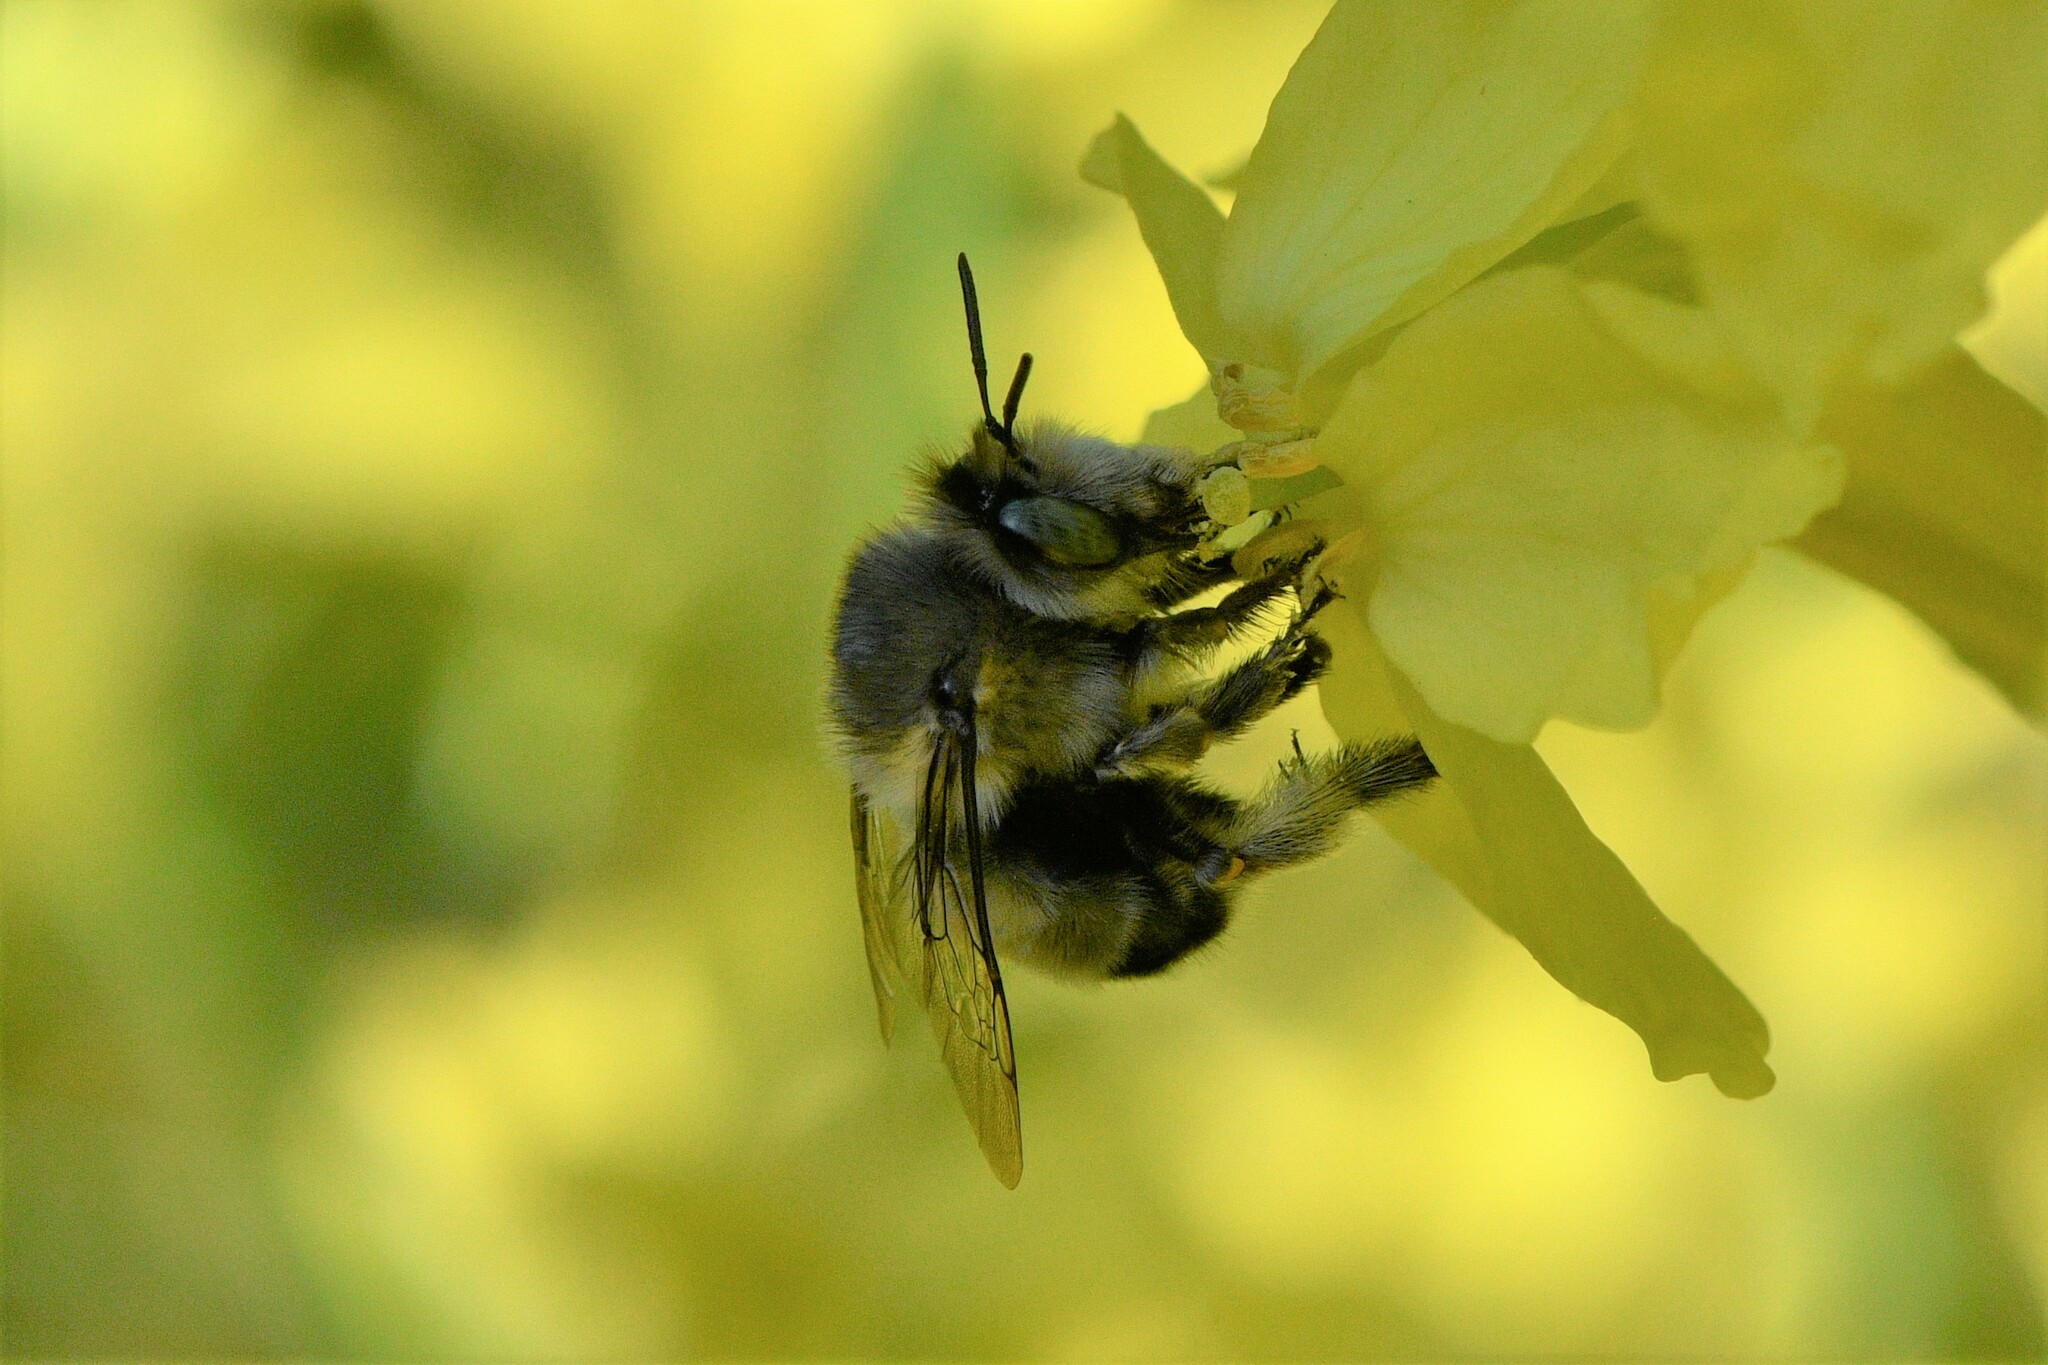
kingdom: Animalia
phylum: Arthropoda
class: Insecta
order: Hymenoptera
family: Apidae
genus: Anthophora
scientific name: Anthophora pacifica
